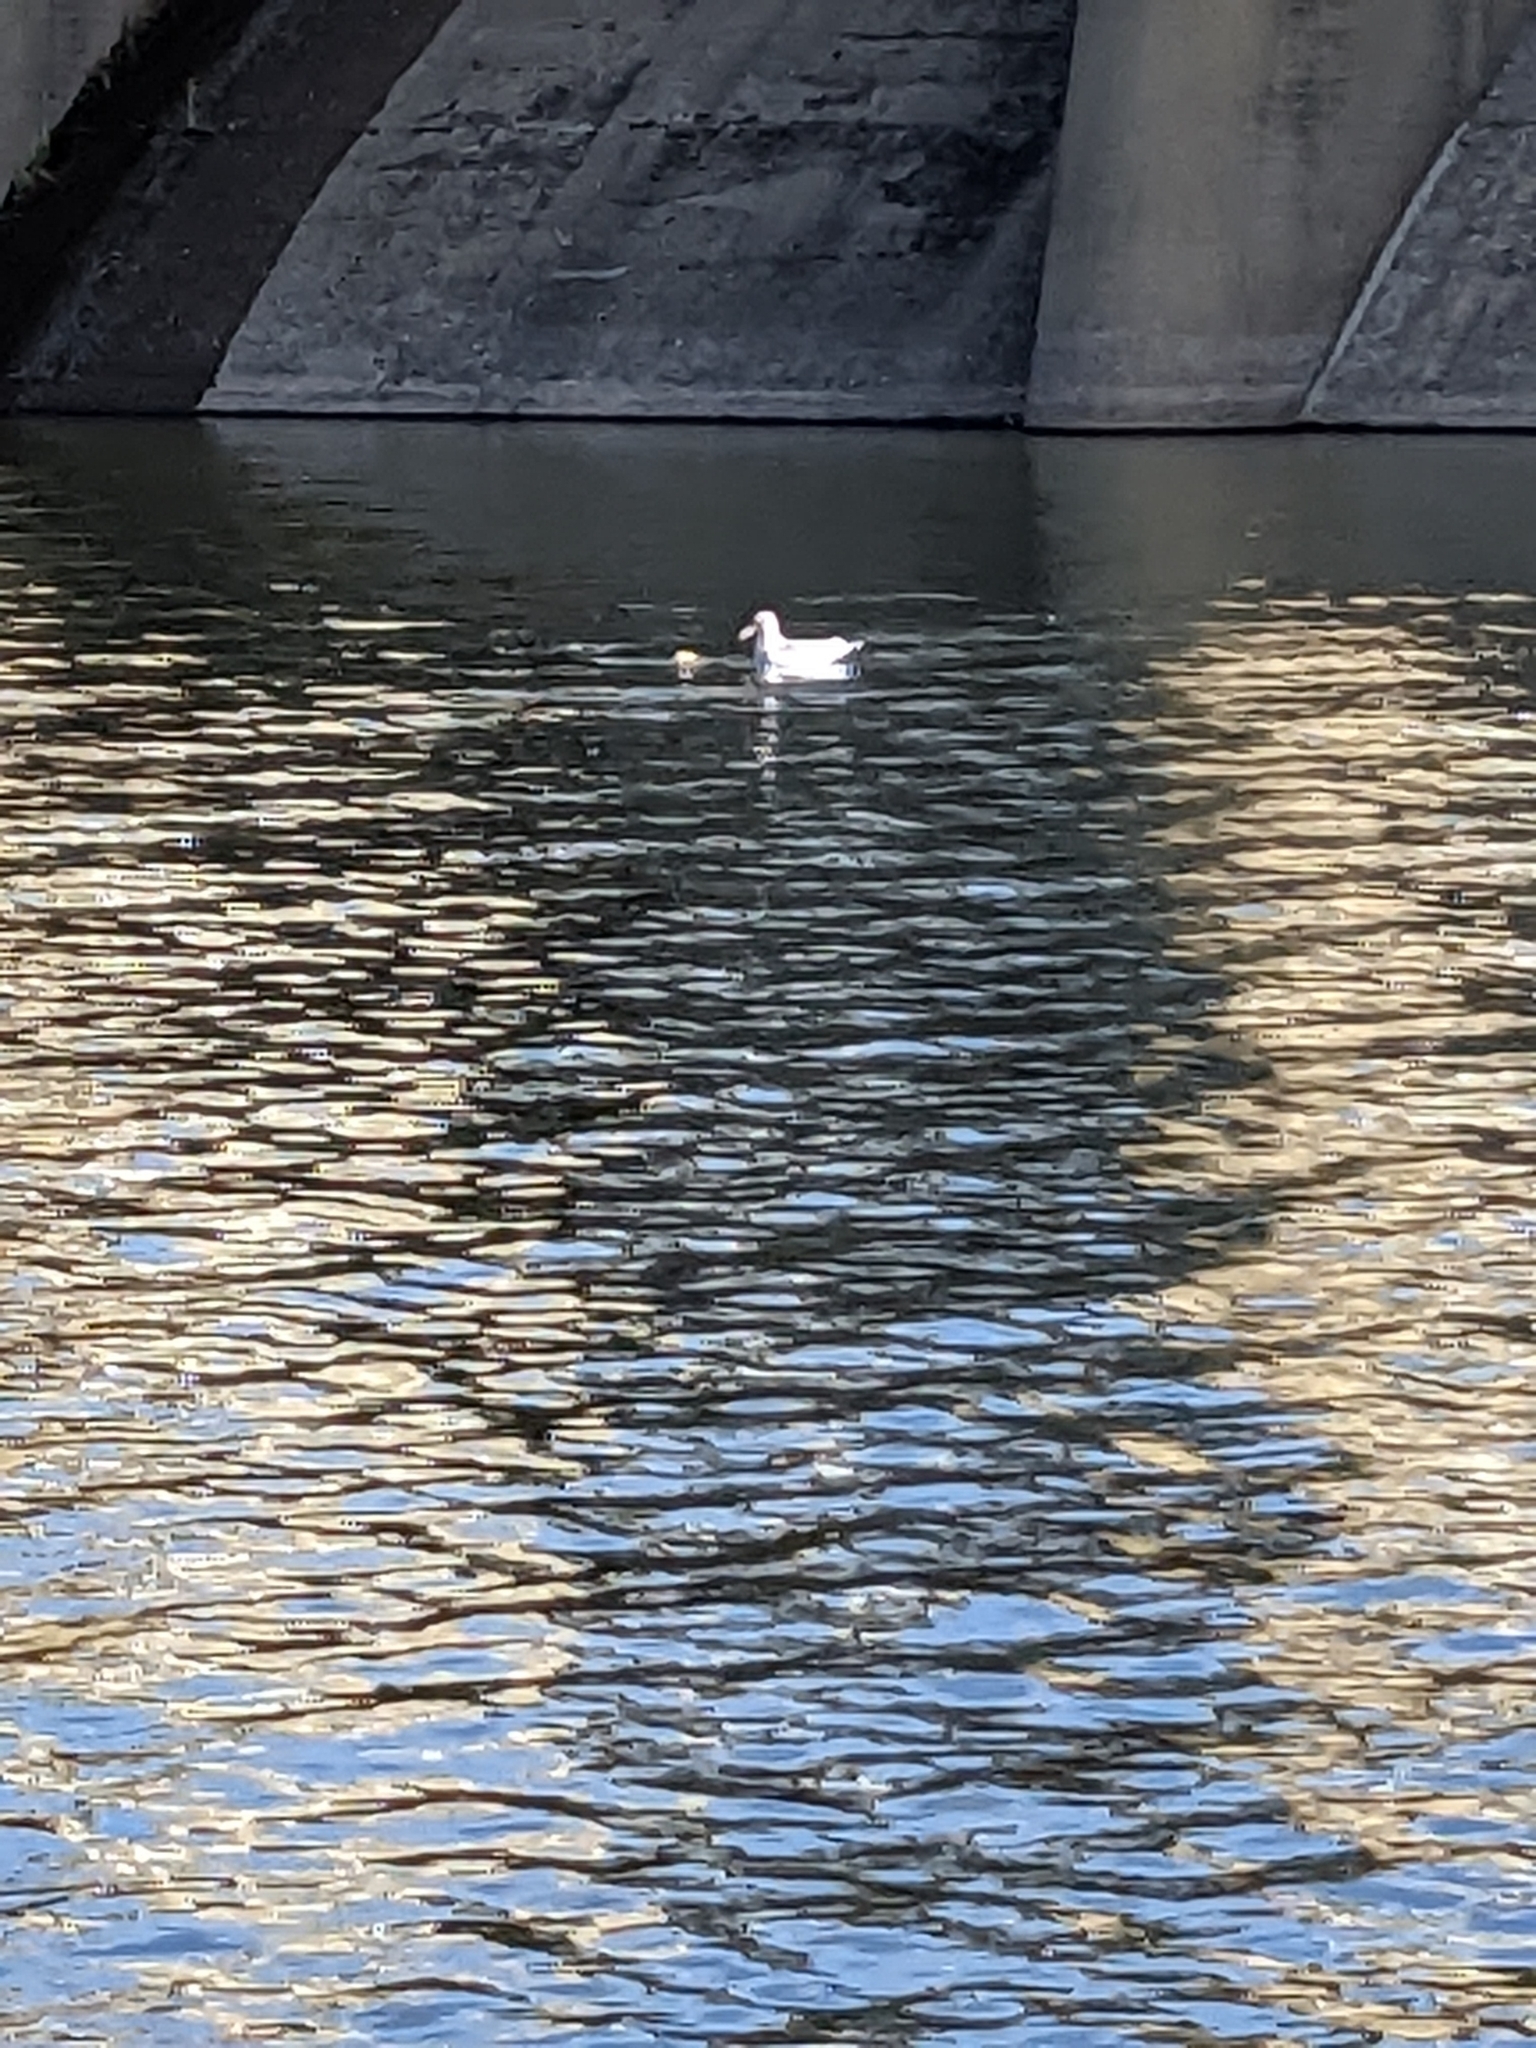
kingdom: Animalia
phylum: Chordata
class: Aves
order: Charadriiformes
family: Laridae
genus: Larus
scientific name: Larus californicus
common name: California gull
